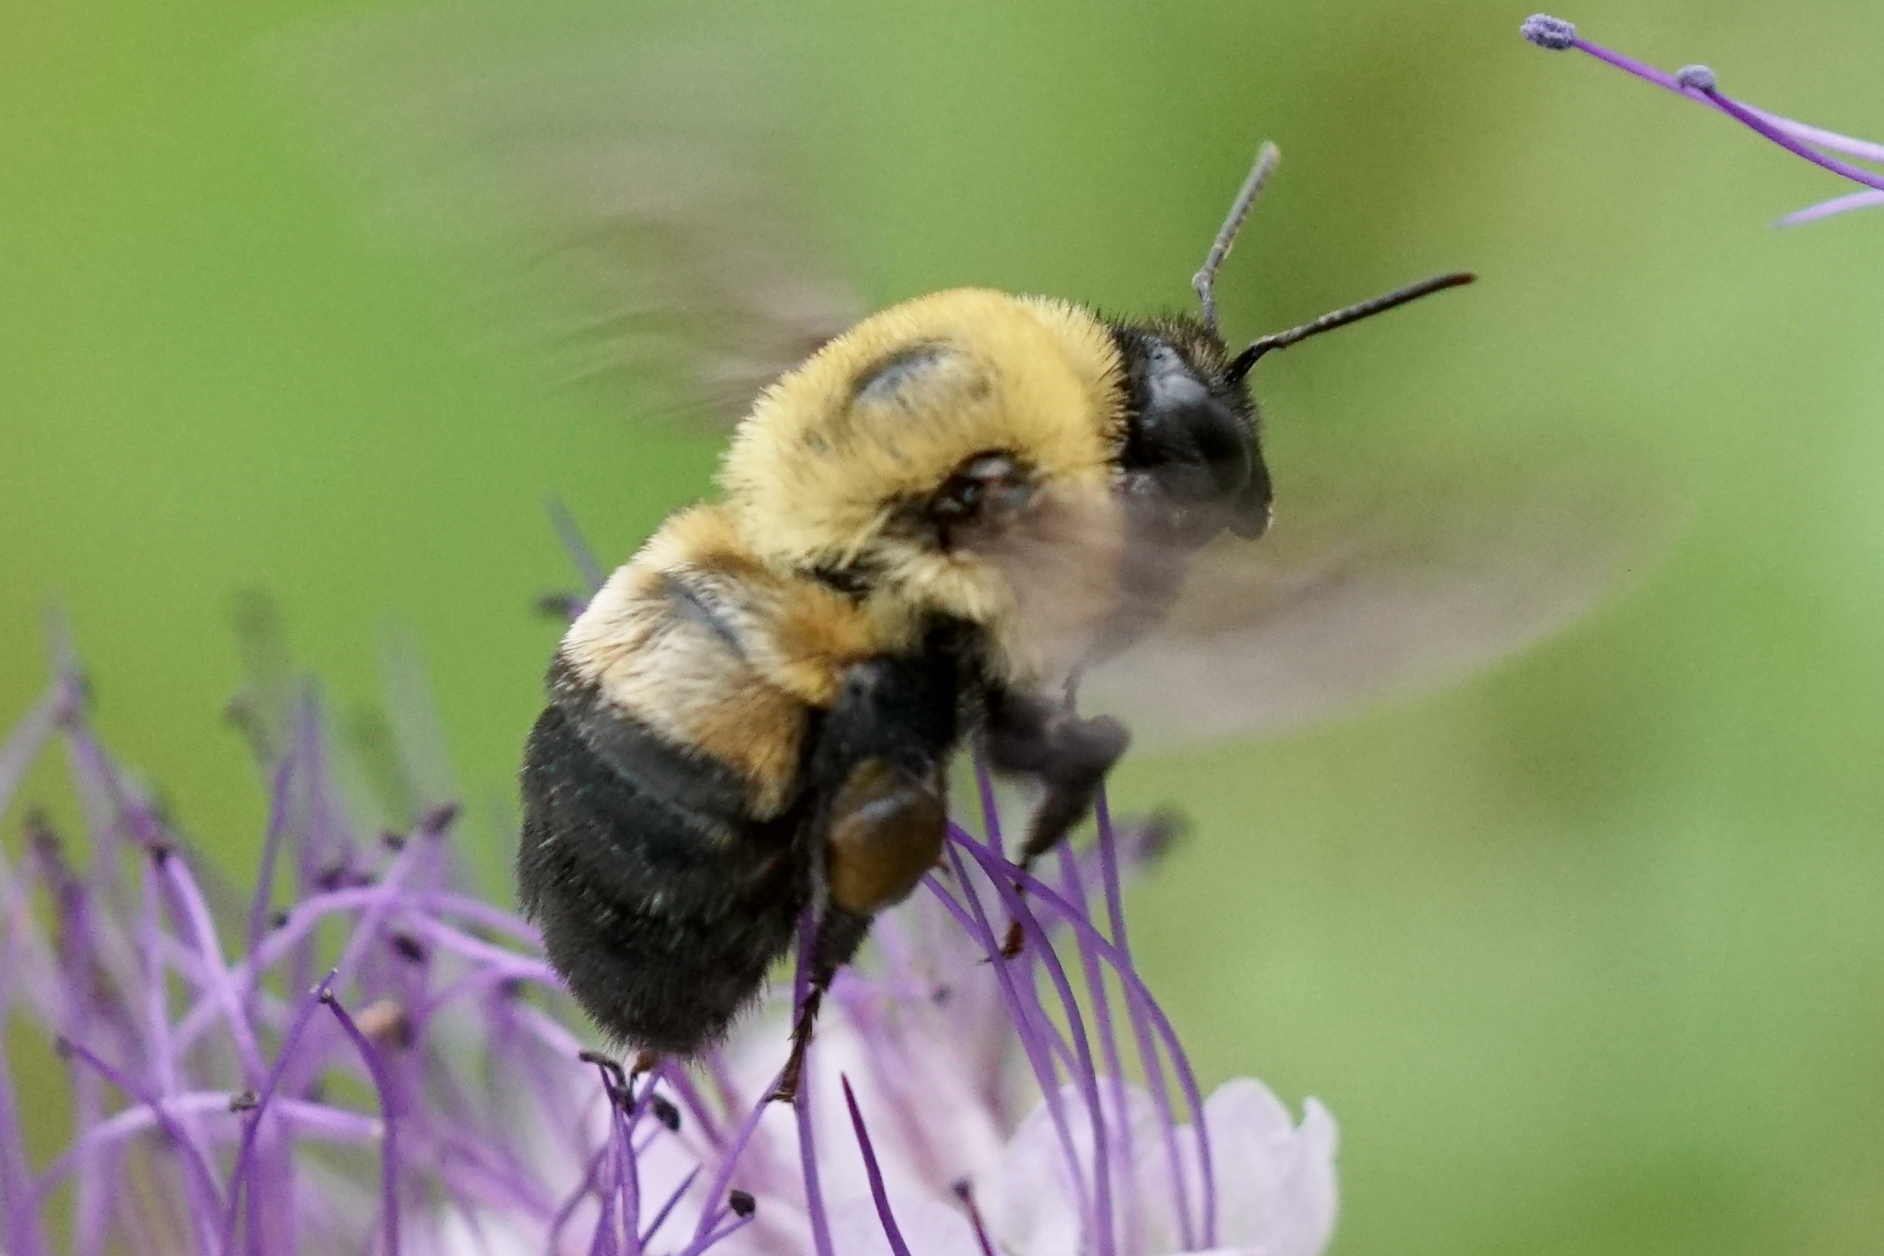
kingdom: Animalia
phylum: Arthropoda
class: Insecta
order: Hymenoptera
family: Apidae
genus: Bombus
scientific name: Bombus griseocollis
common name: Brown-belted bumble bee
